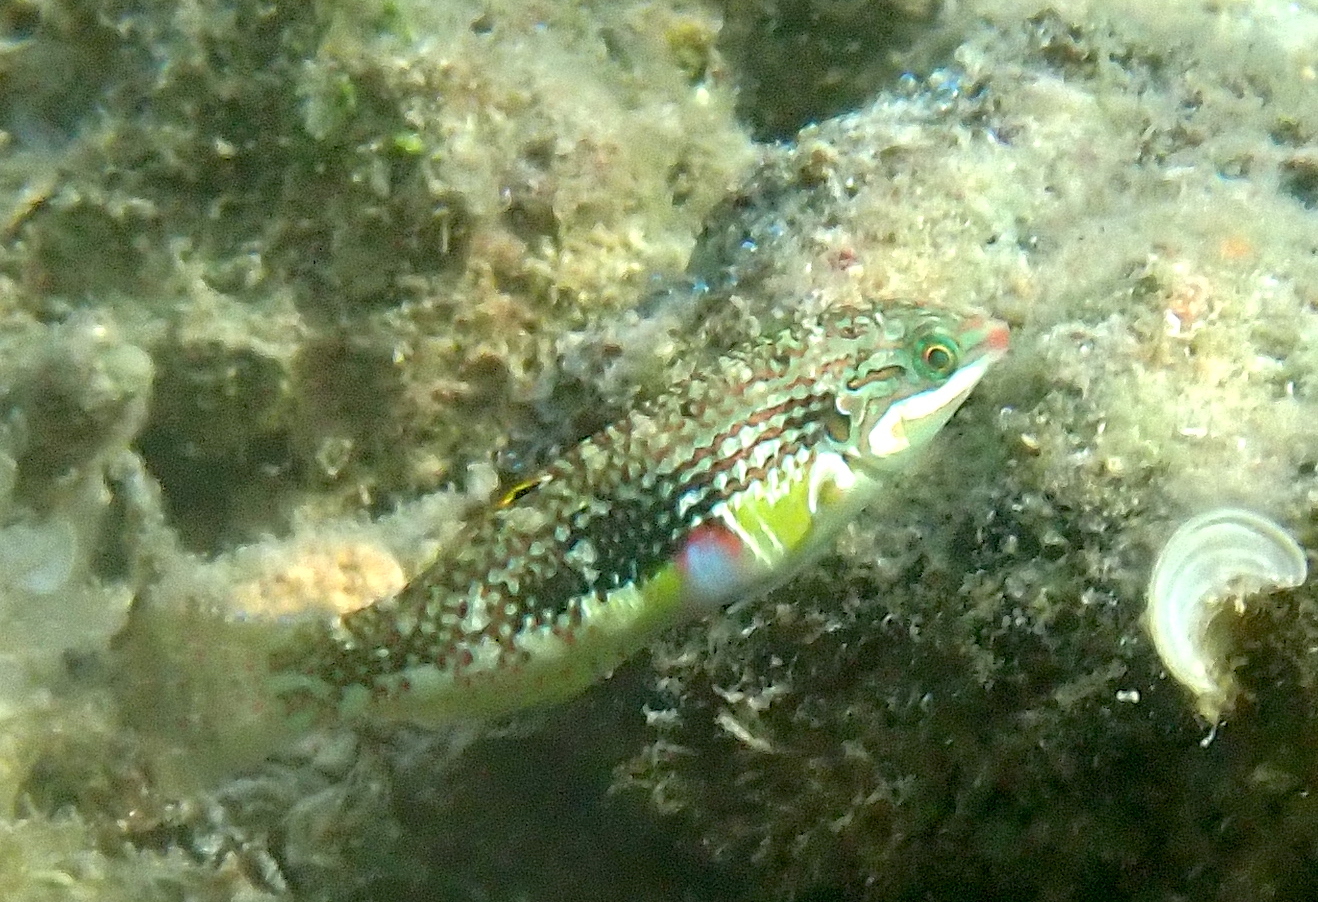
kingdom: Animalia
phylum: Chordata
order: Perciformes
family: Labridae
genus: Halichoeres
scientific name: Halichoeres margaritaceus
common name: Pink-belly wrasse
